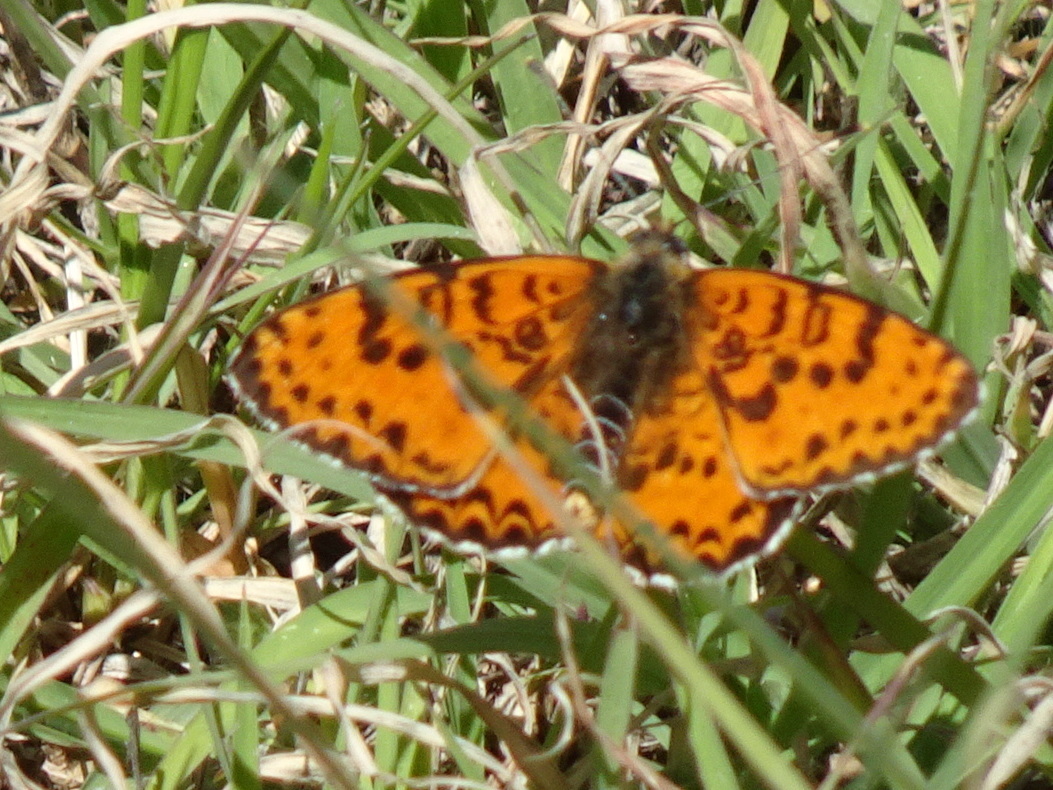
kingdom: Animalia
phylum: Arthropoda
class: Insecta
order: Lepidoptera
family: Nymphalidae
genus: Melitaea
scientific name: Melitaea didyma
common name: Spotted fritillary
